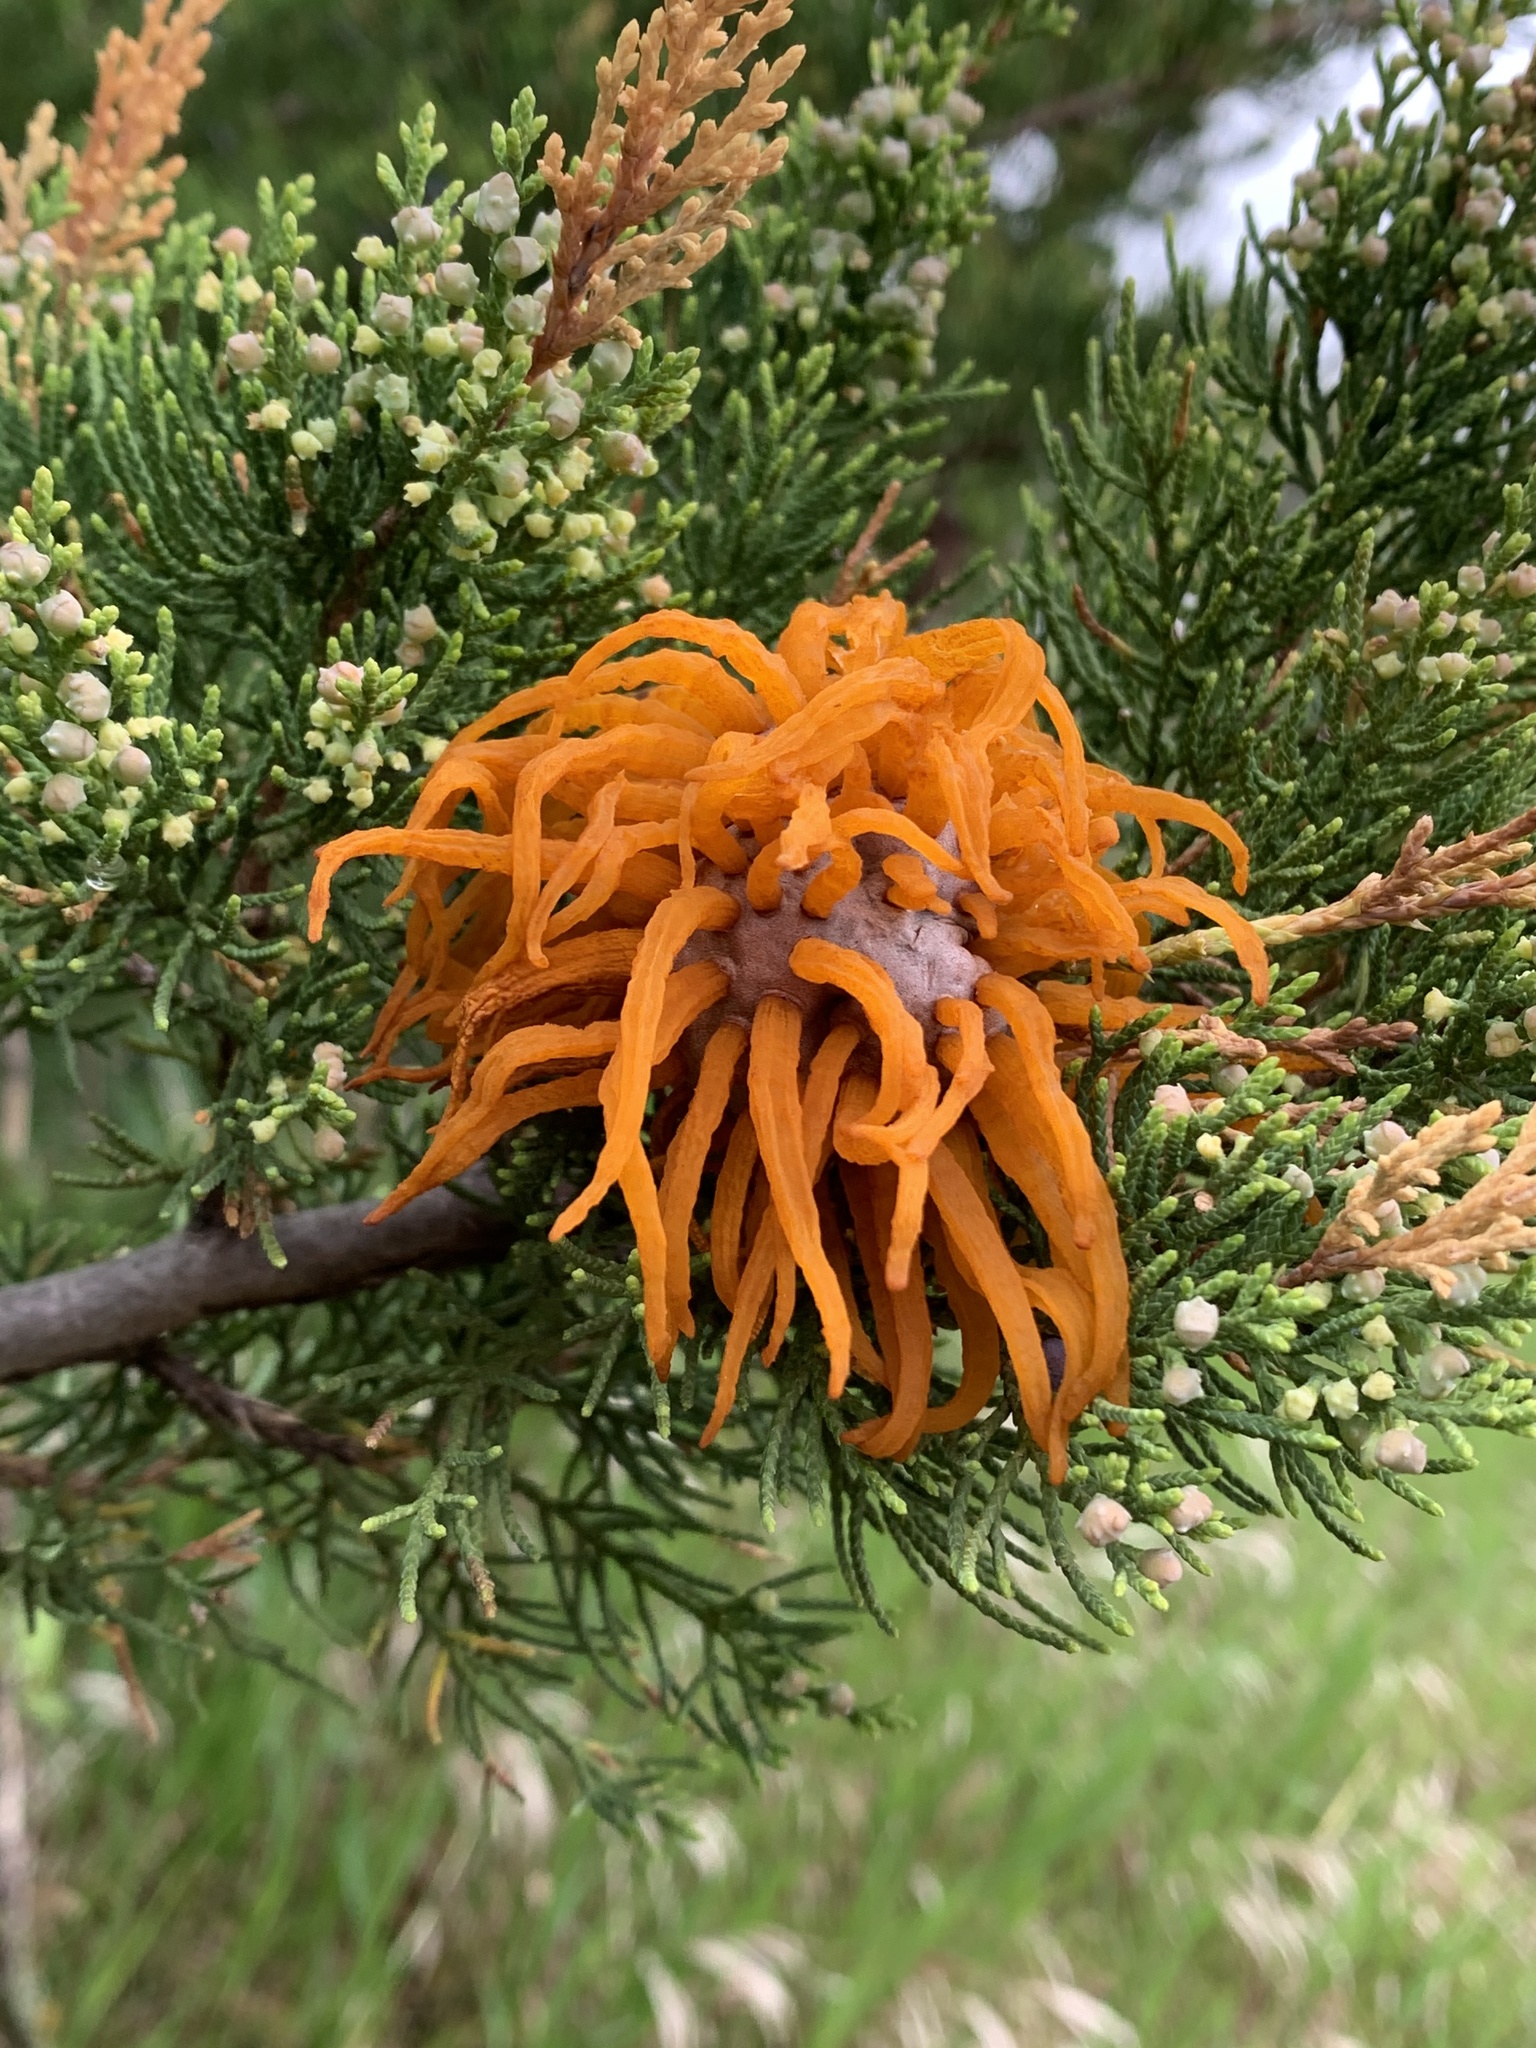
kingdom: Fungi
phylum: Basidiomycota
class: Pucciniomycetes
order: Pucciniales
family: Gymnosporangiaceae
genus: Gymnosporangium
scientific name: Gymnosporangium juniperi-virginianae
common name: Juniper-apple rust
